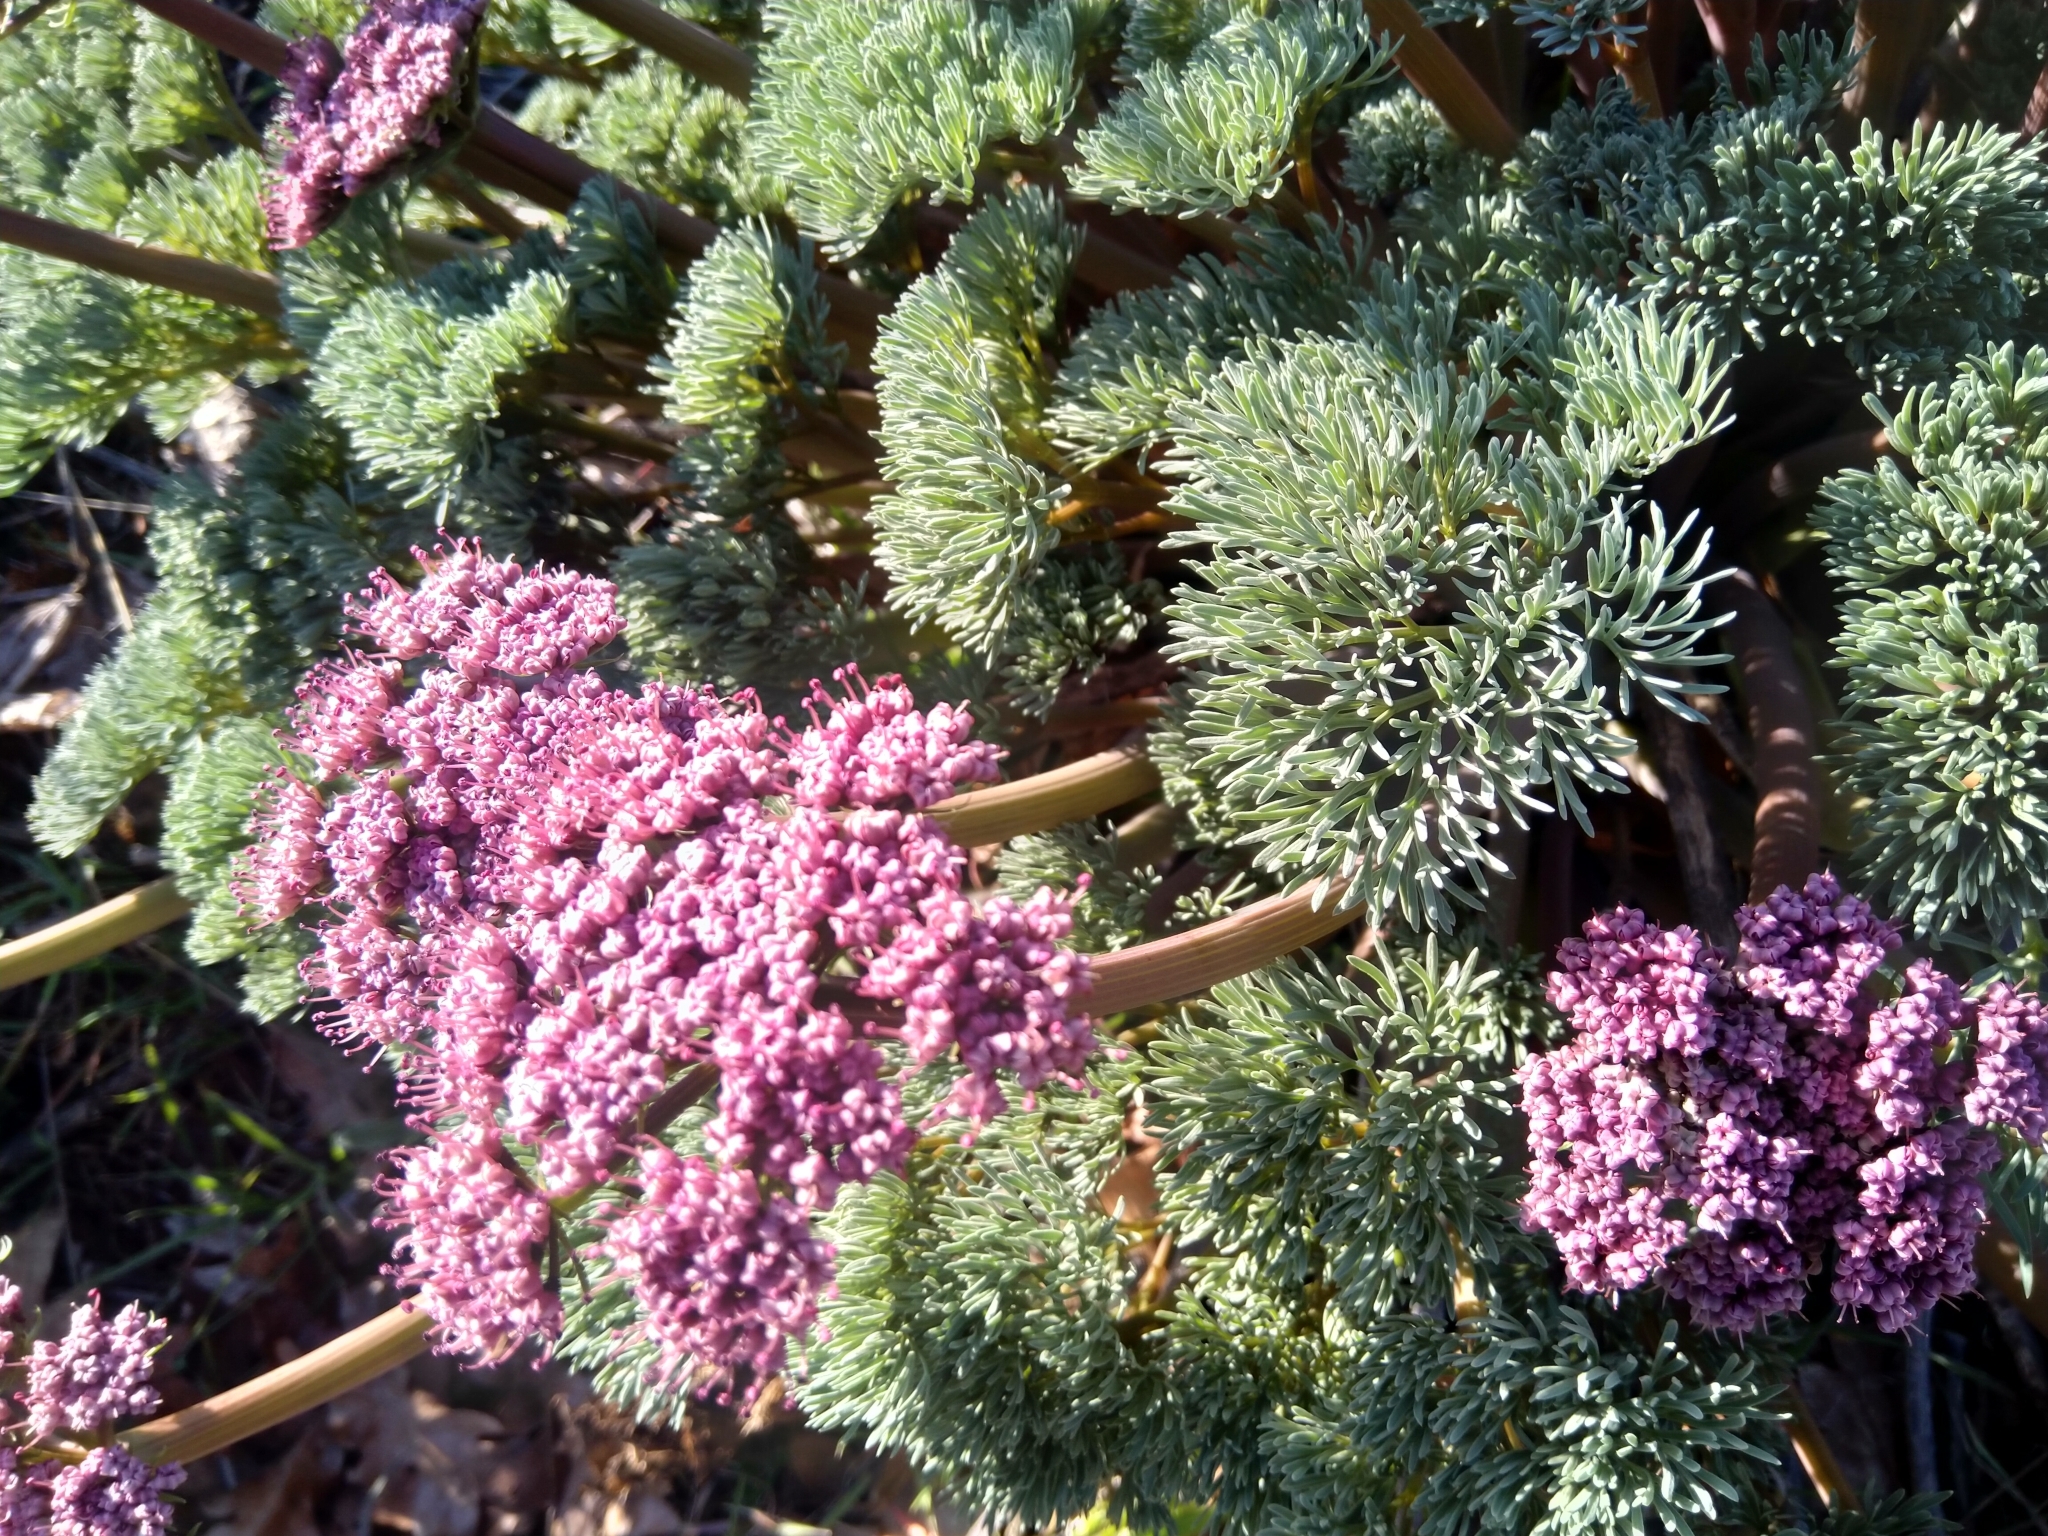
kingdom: Plantae
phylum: Tracheophyta
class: Magnoliopsida
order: Apiales
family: Apiaceae
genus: Lomatium
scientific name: Lomatium columbianum
